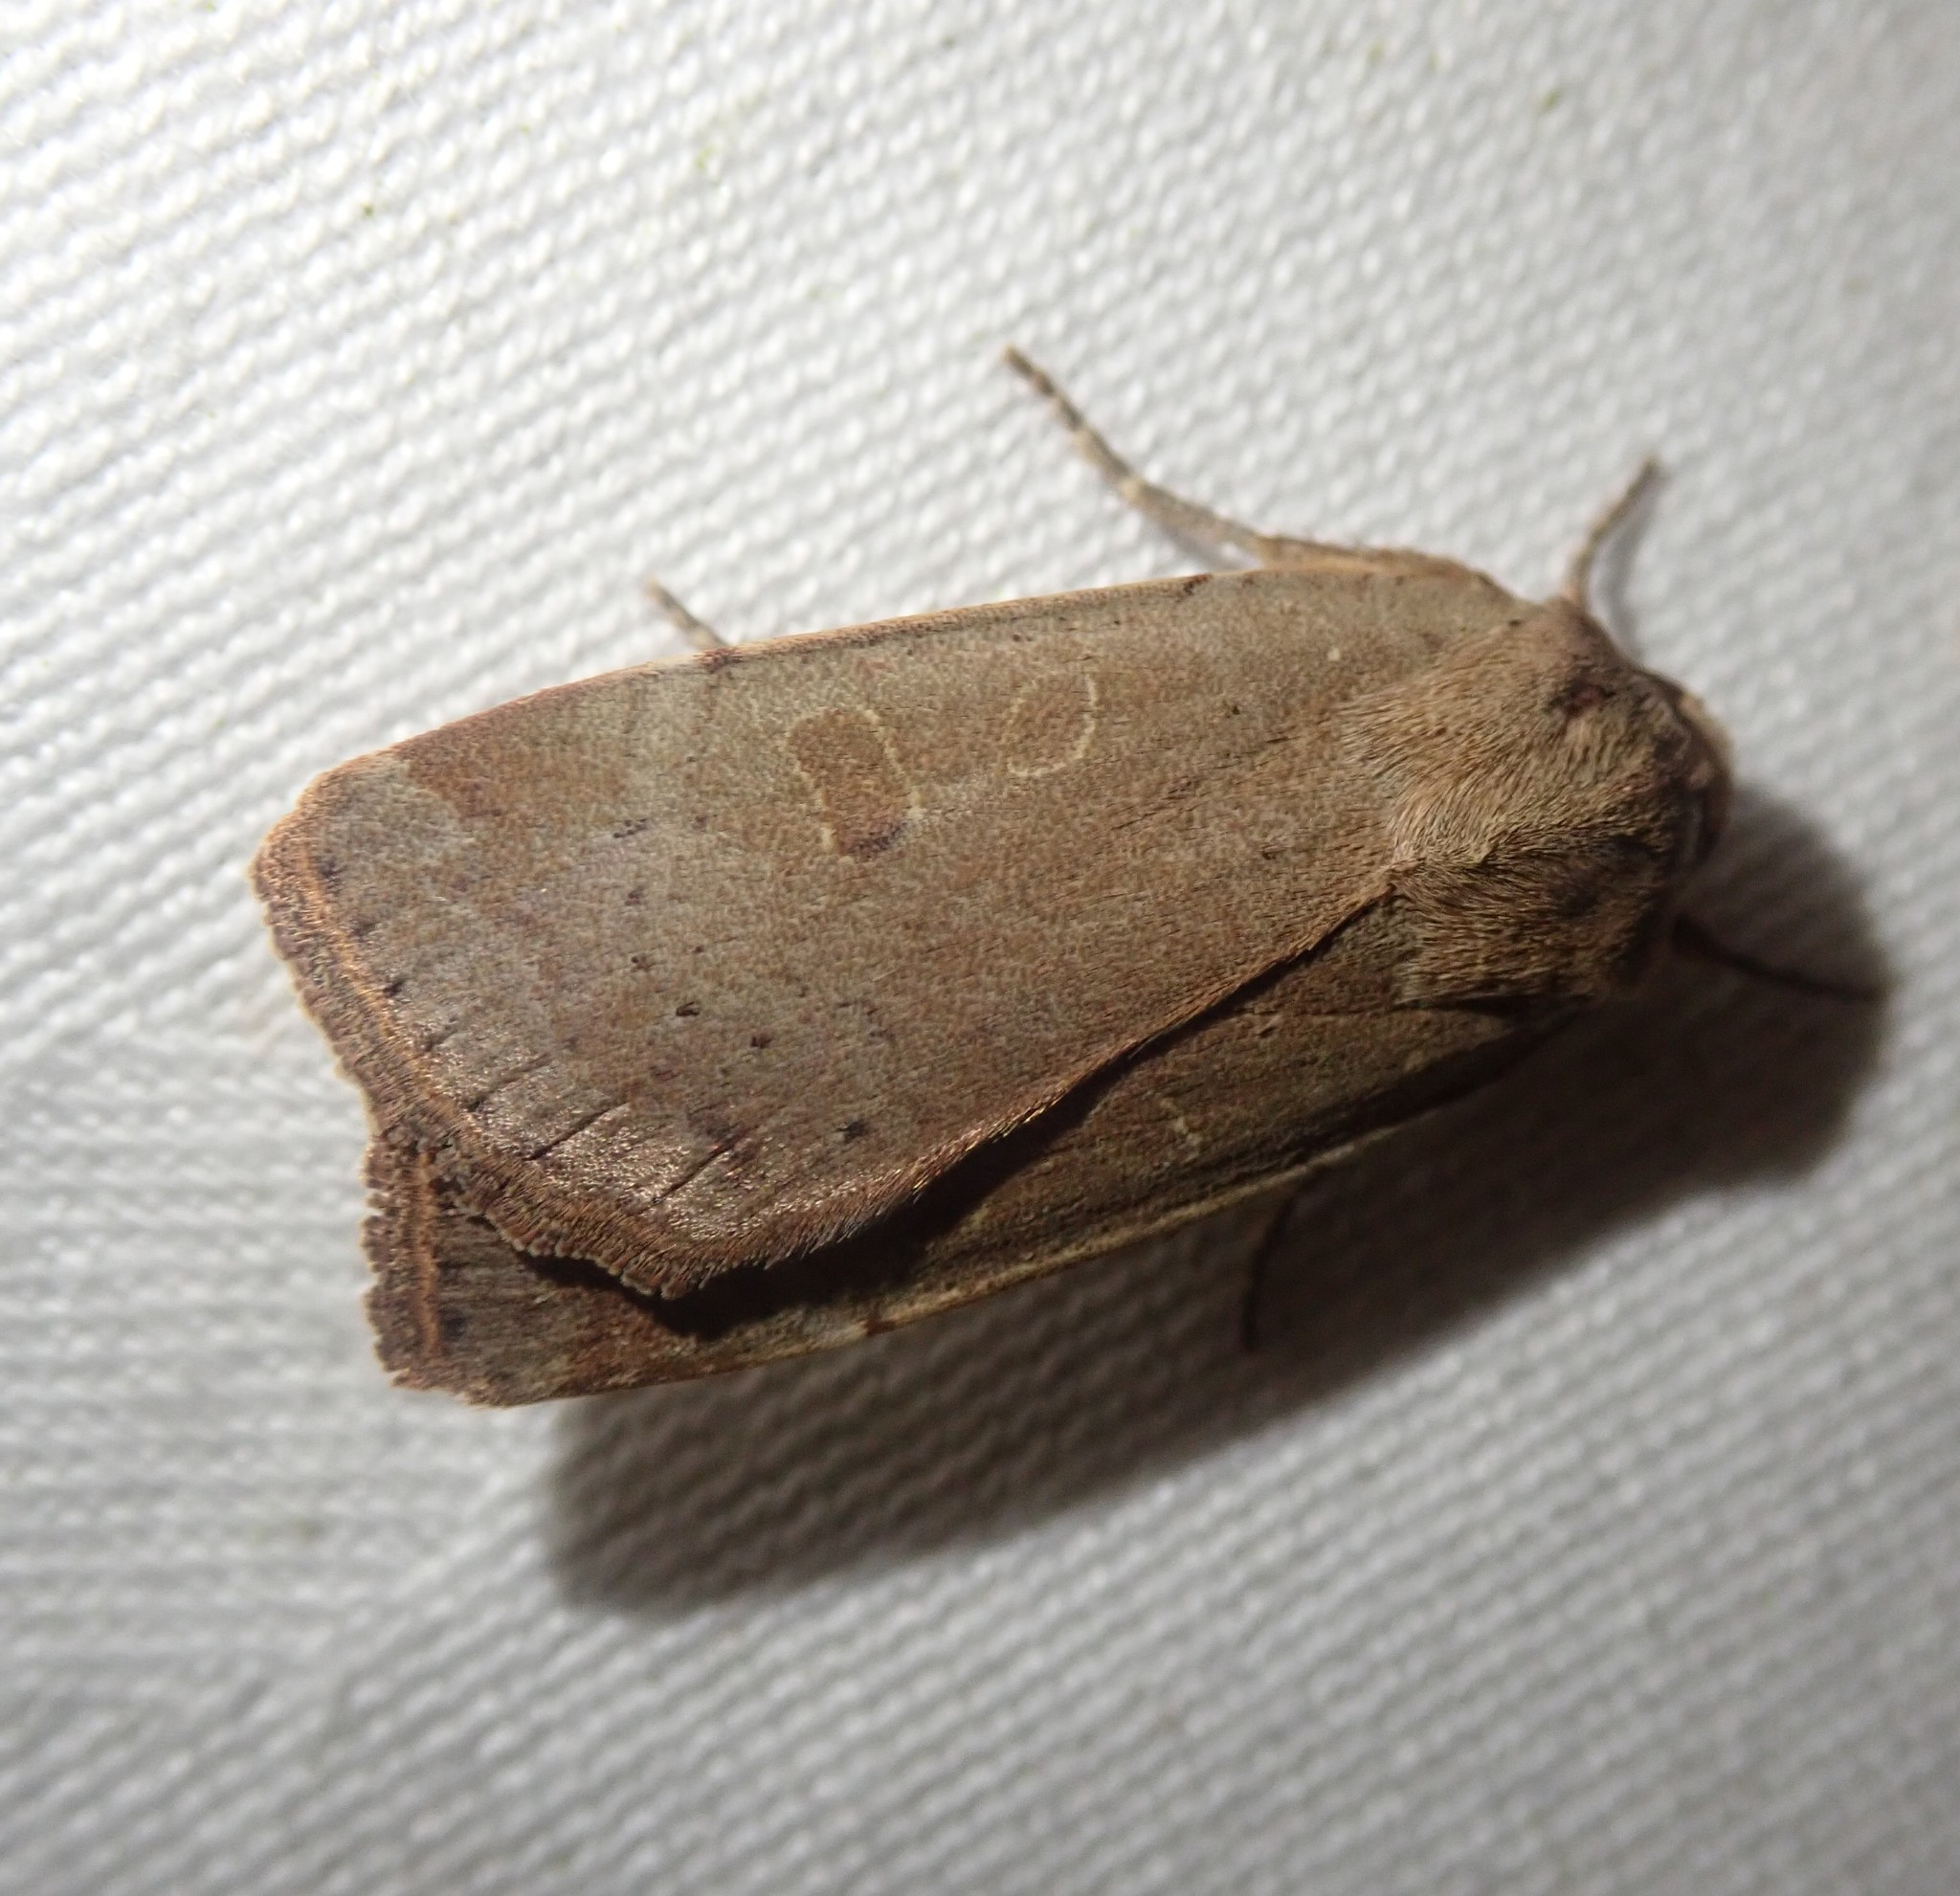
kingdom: Animalia
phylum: Arthropoda
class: Insecta
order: Lepidoptera
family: Noctuidae
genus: Noctua
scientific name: Noctua comes
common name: Lesser yellow underwing
